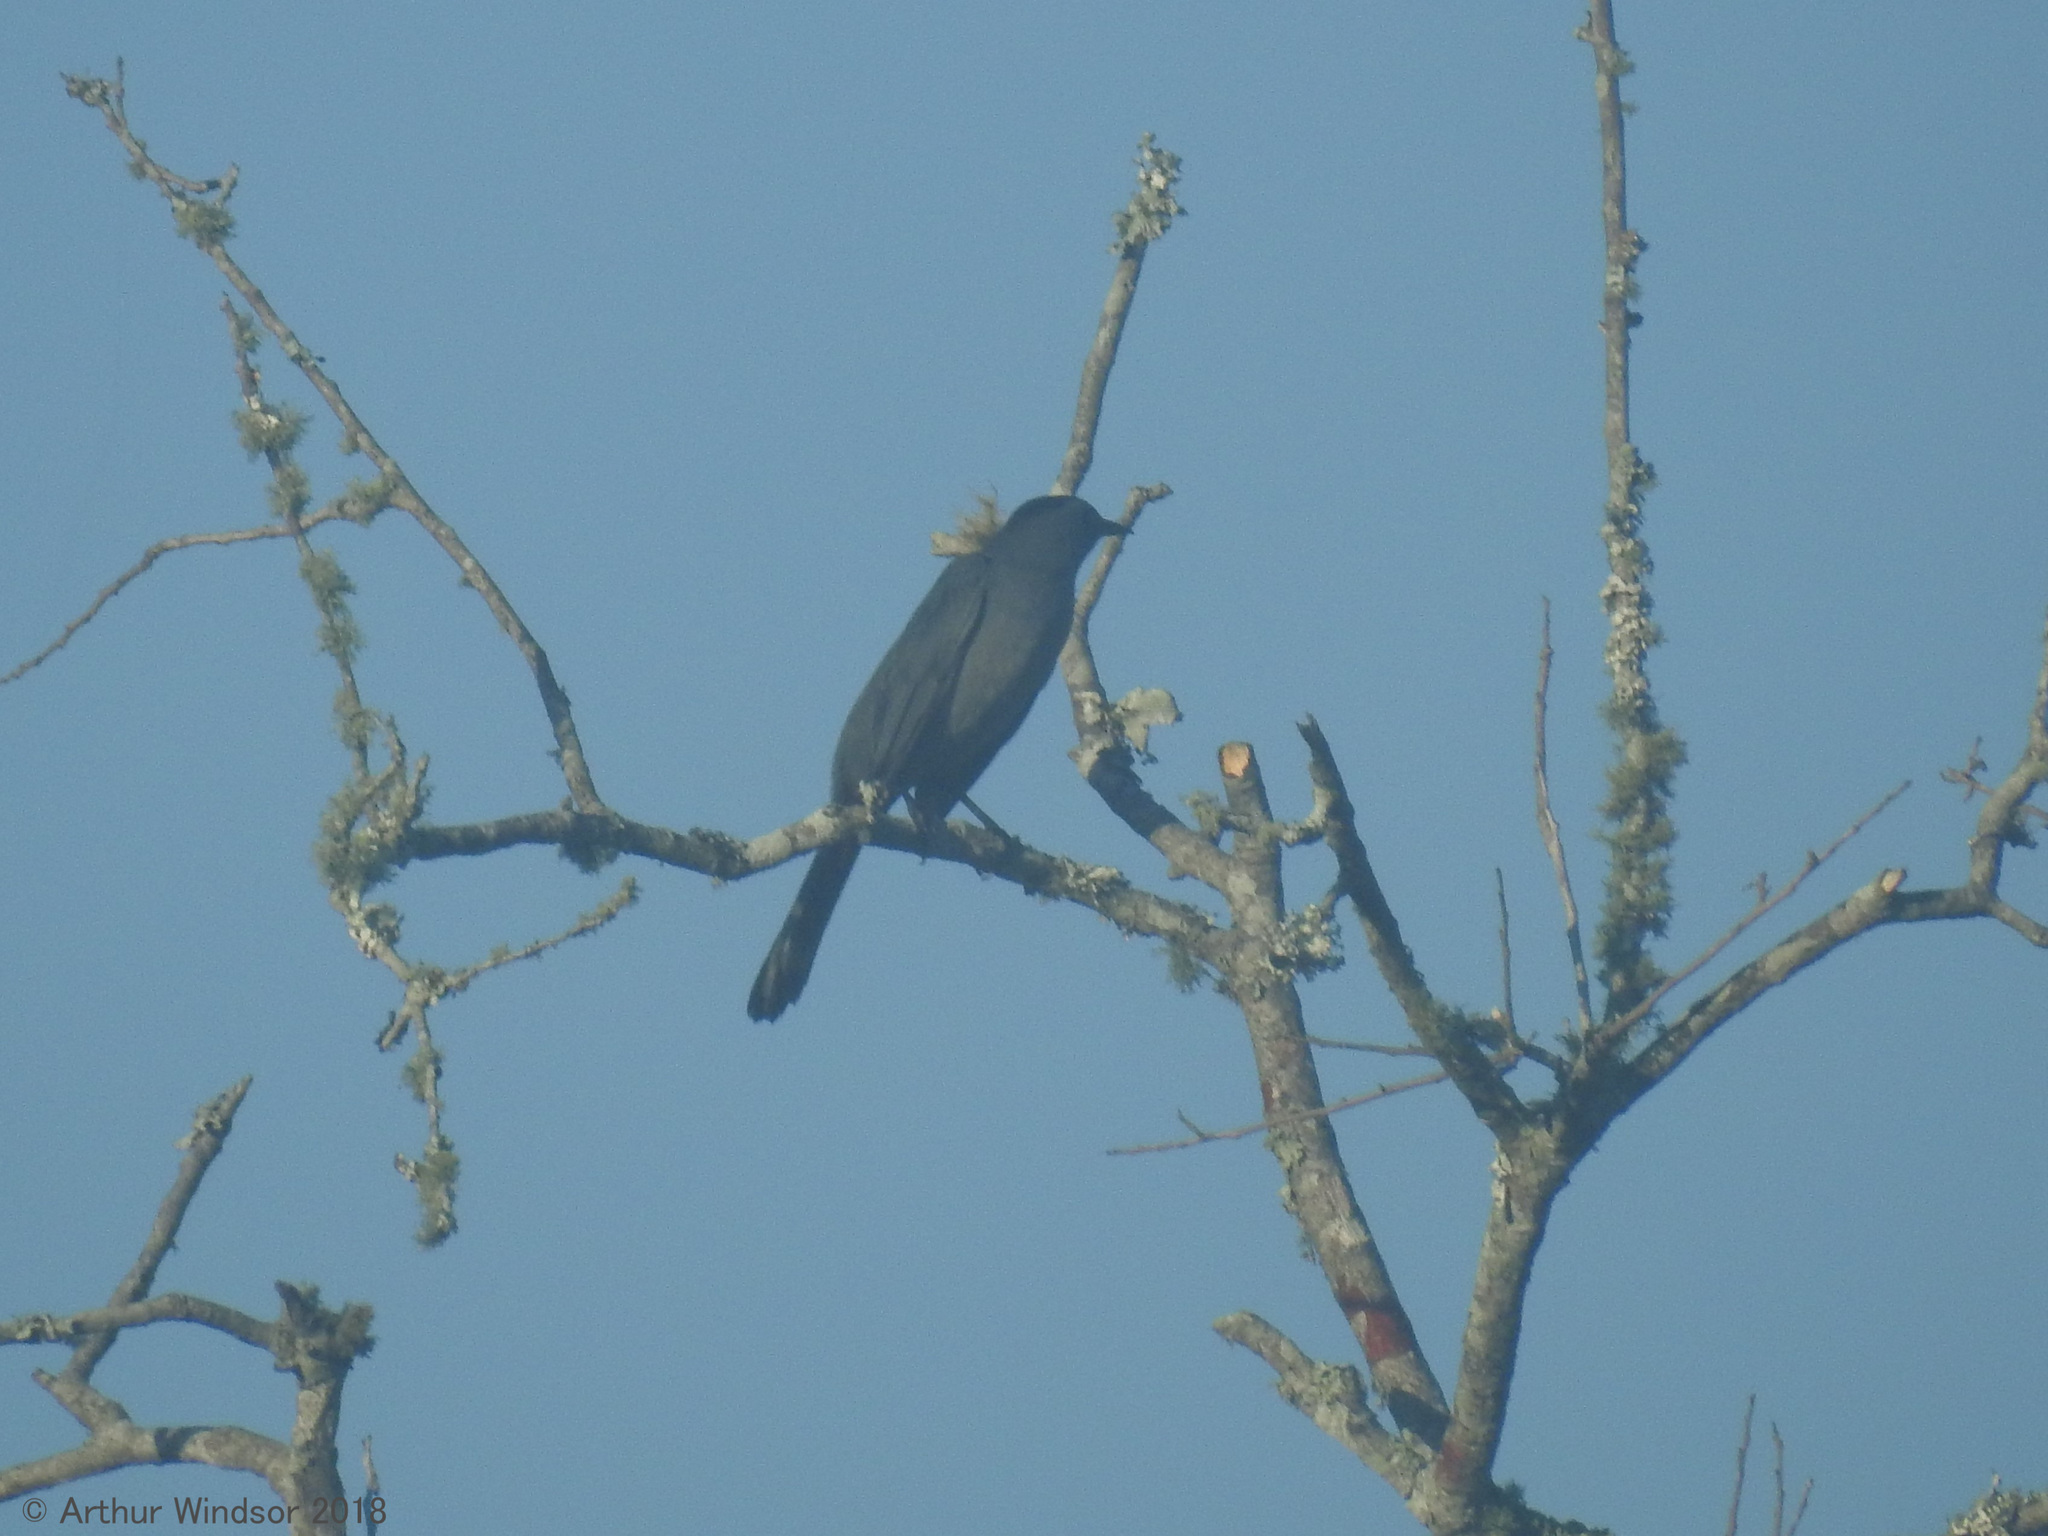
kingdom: Animalia
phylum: Chordata
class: Aves
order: Passeriformes
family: Mimidae
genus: Dumetella
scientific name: Dumetella carolinensis
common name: Gray catbird
